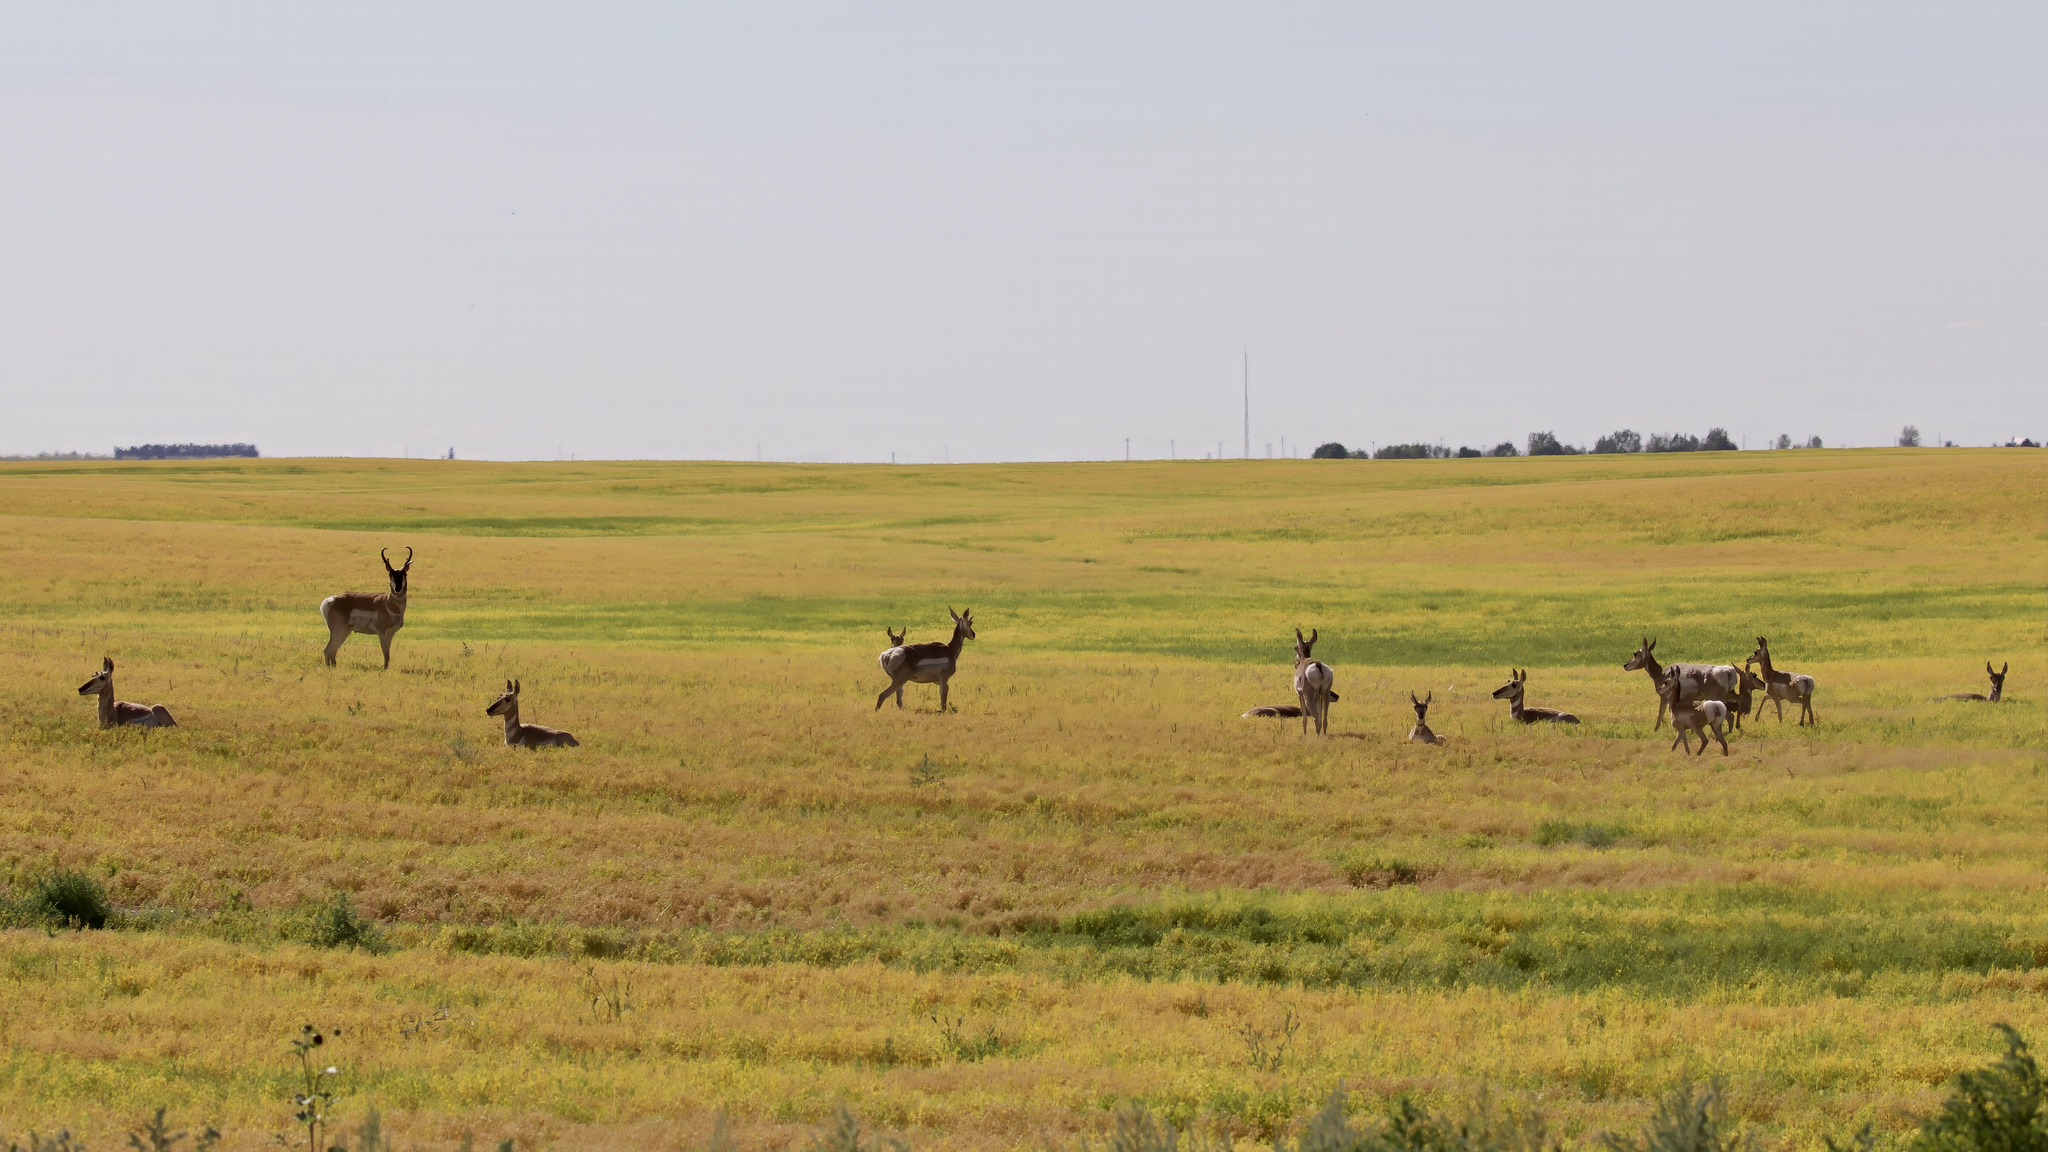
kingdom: Animalia
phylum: Chordata
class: Mammalia
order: Artiodactyla
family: Antilocapridae
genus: Antilocapra
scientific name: Antilocapra americana
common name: Pronghorn
